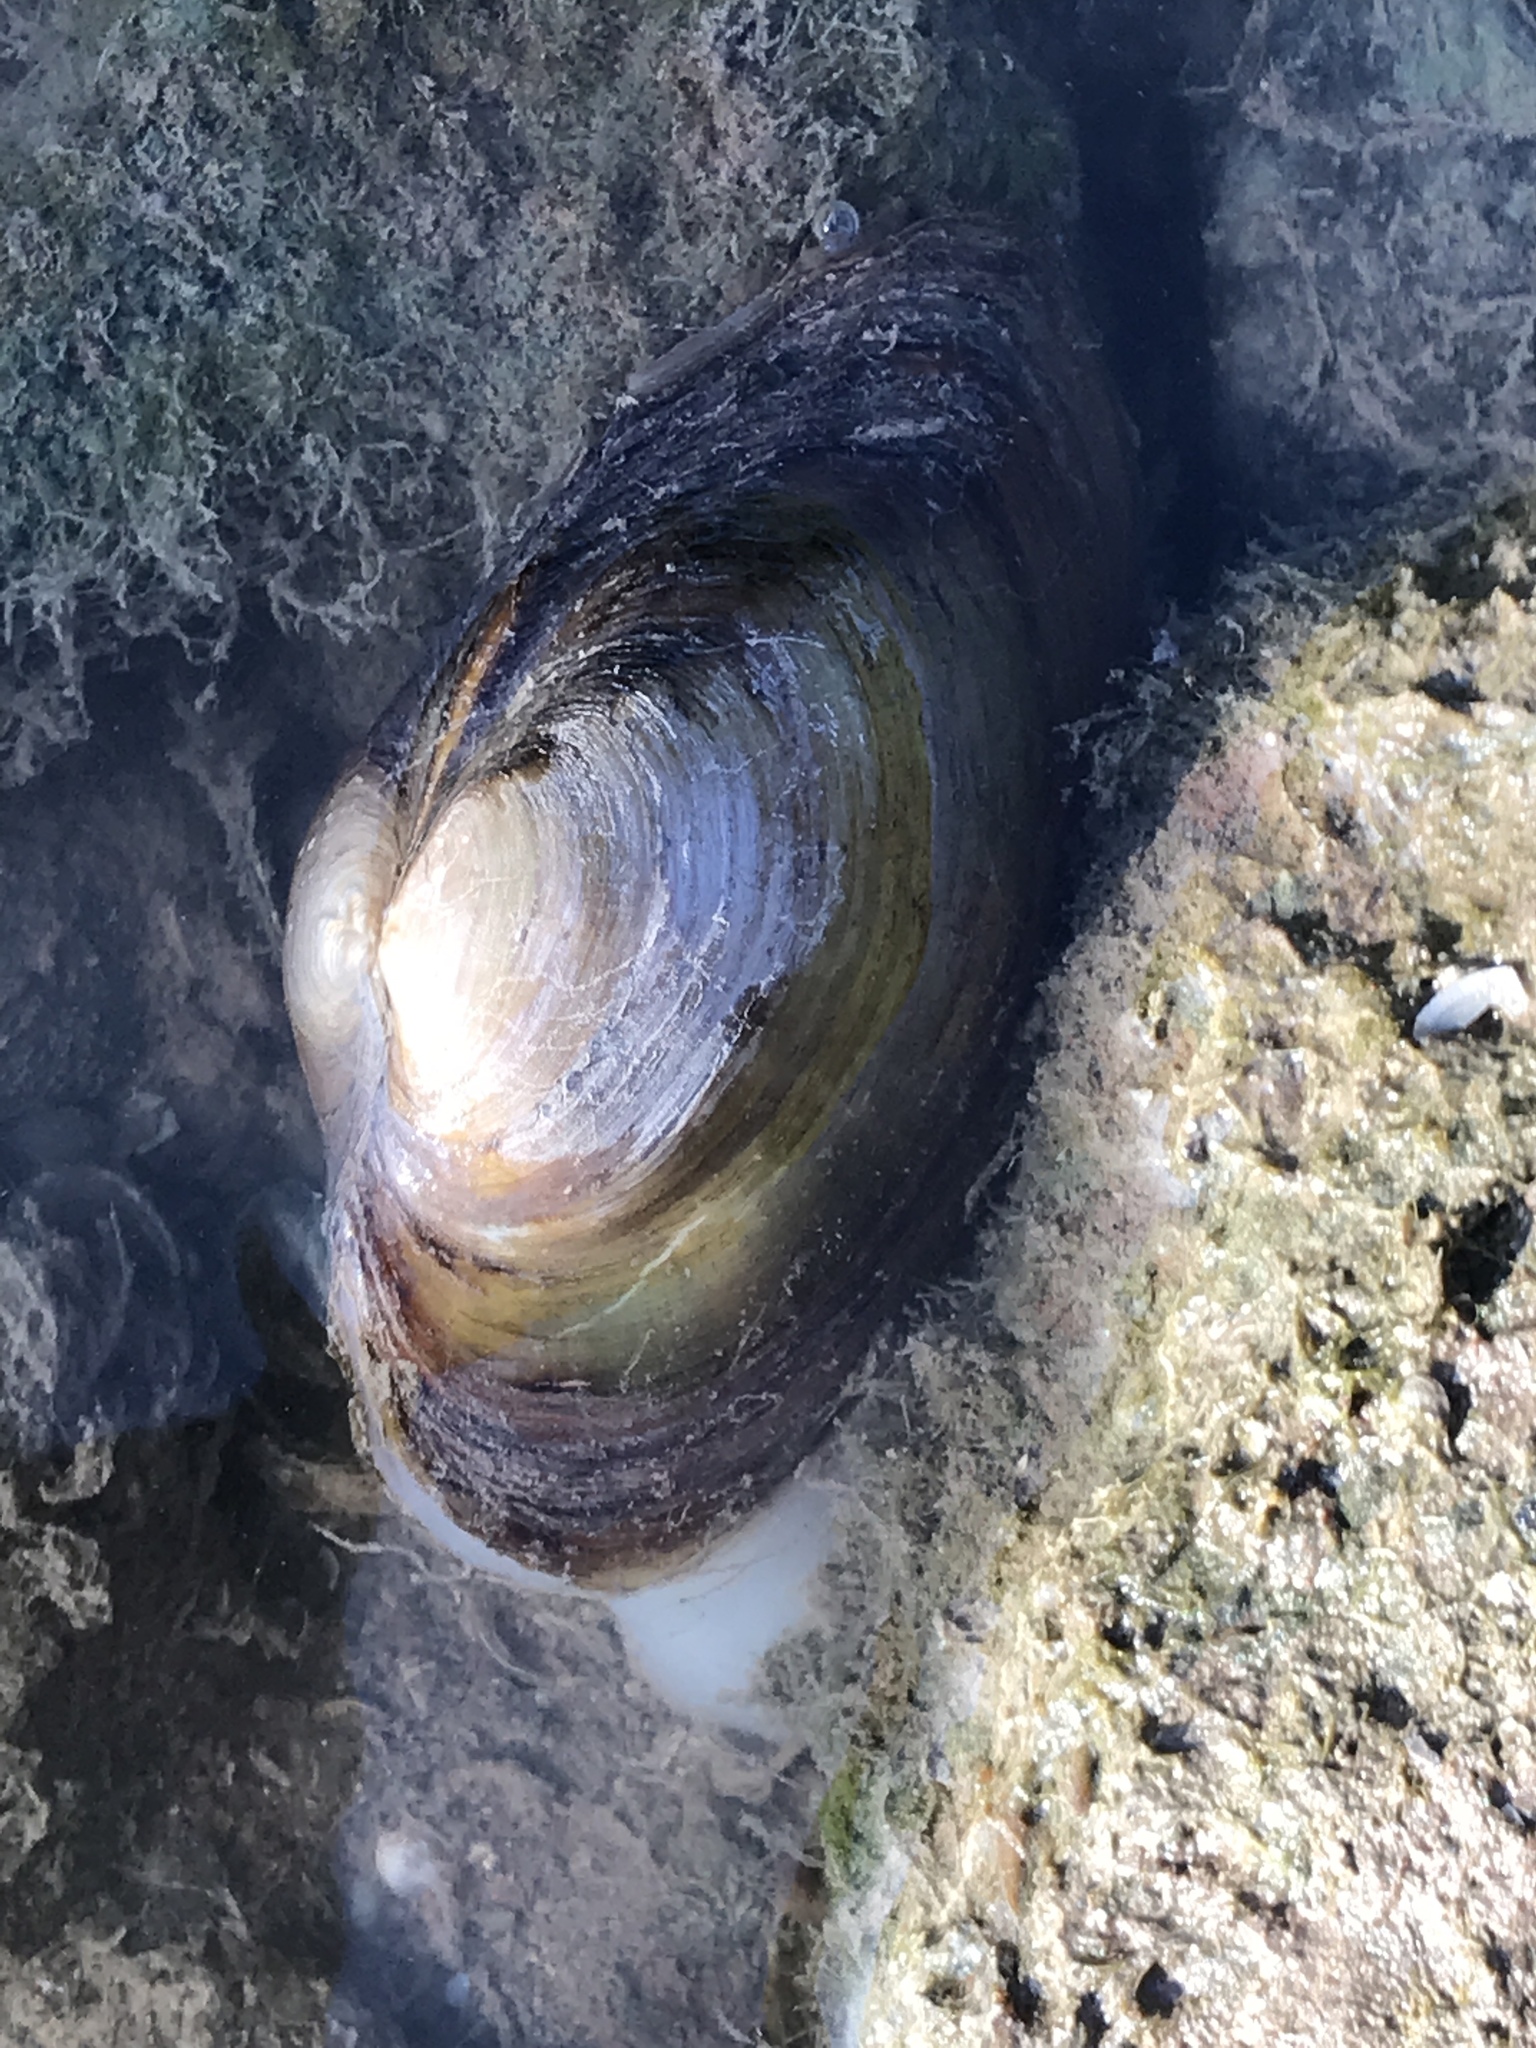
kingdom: Animalia
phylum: Mollusca
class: Bivalvia
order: Unionida
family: Unionidae
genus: Pyganodon
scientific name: Pyganodon grandis
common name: Giant floater
